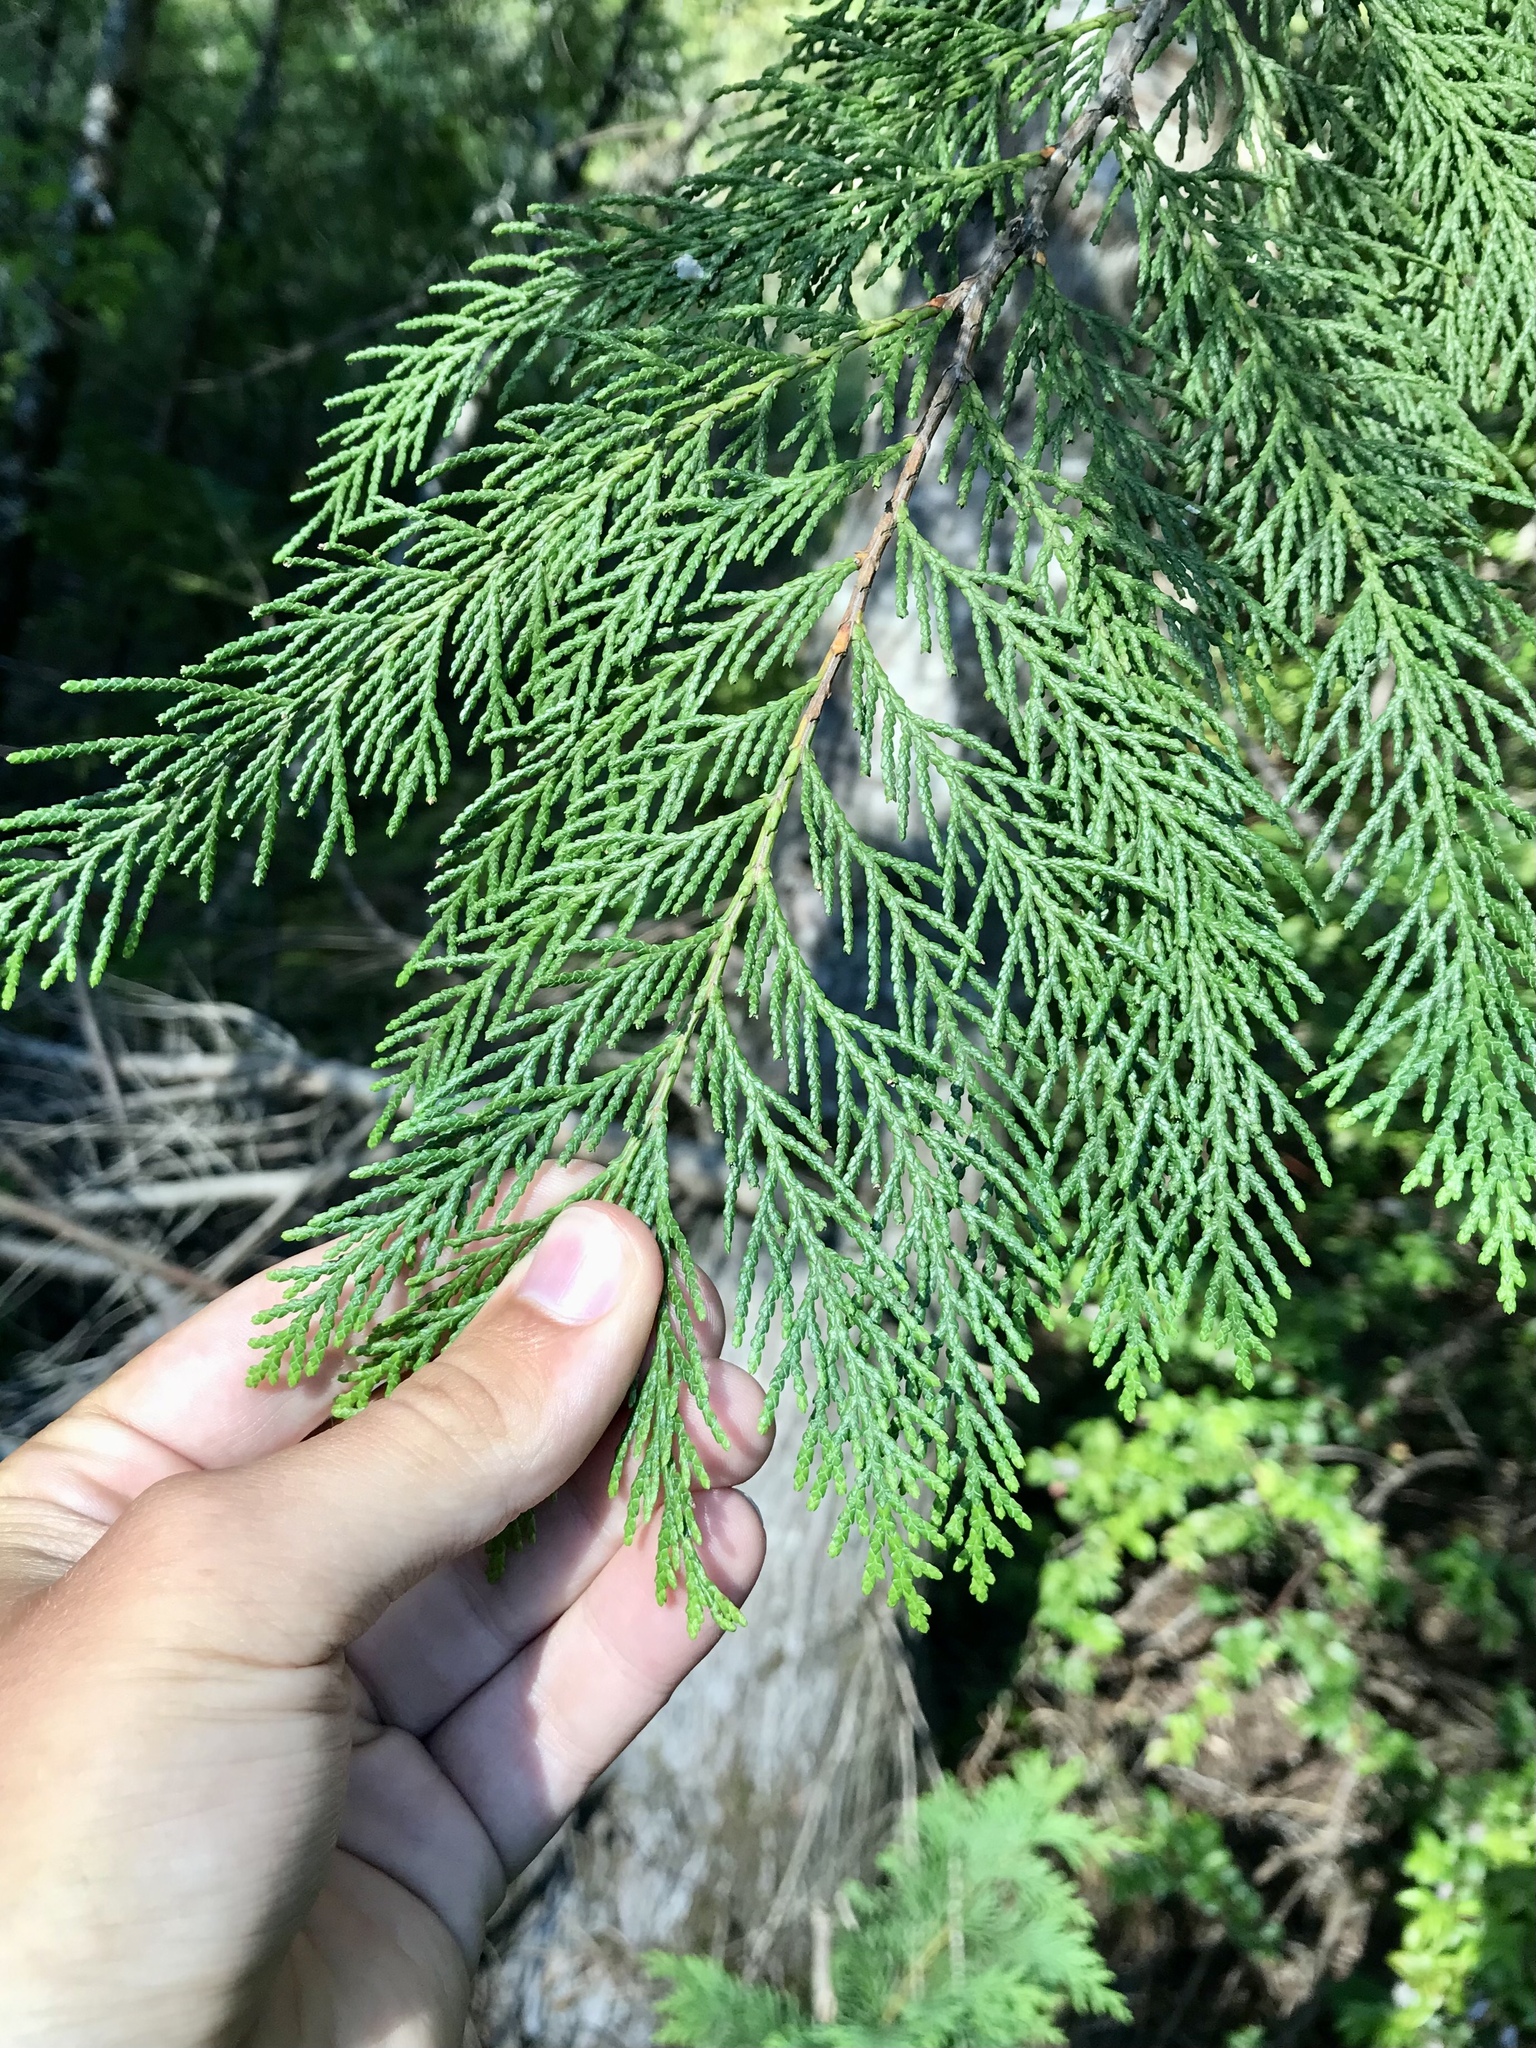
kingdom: Plantae
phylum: Tracheophyta
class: Pinopsida
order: Pinales
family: Cupressaceae
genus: Chamaecyparis
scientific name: Chamaecyparis lawsoniana
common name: Lawson's cypress
